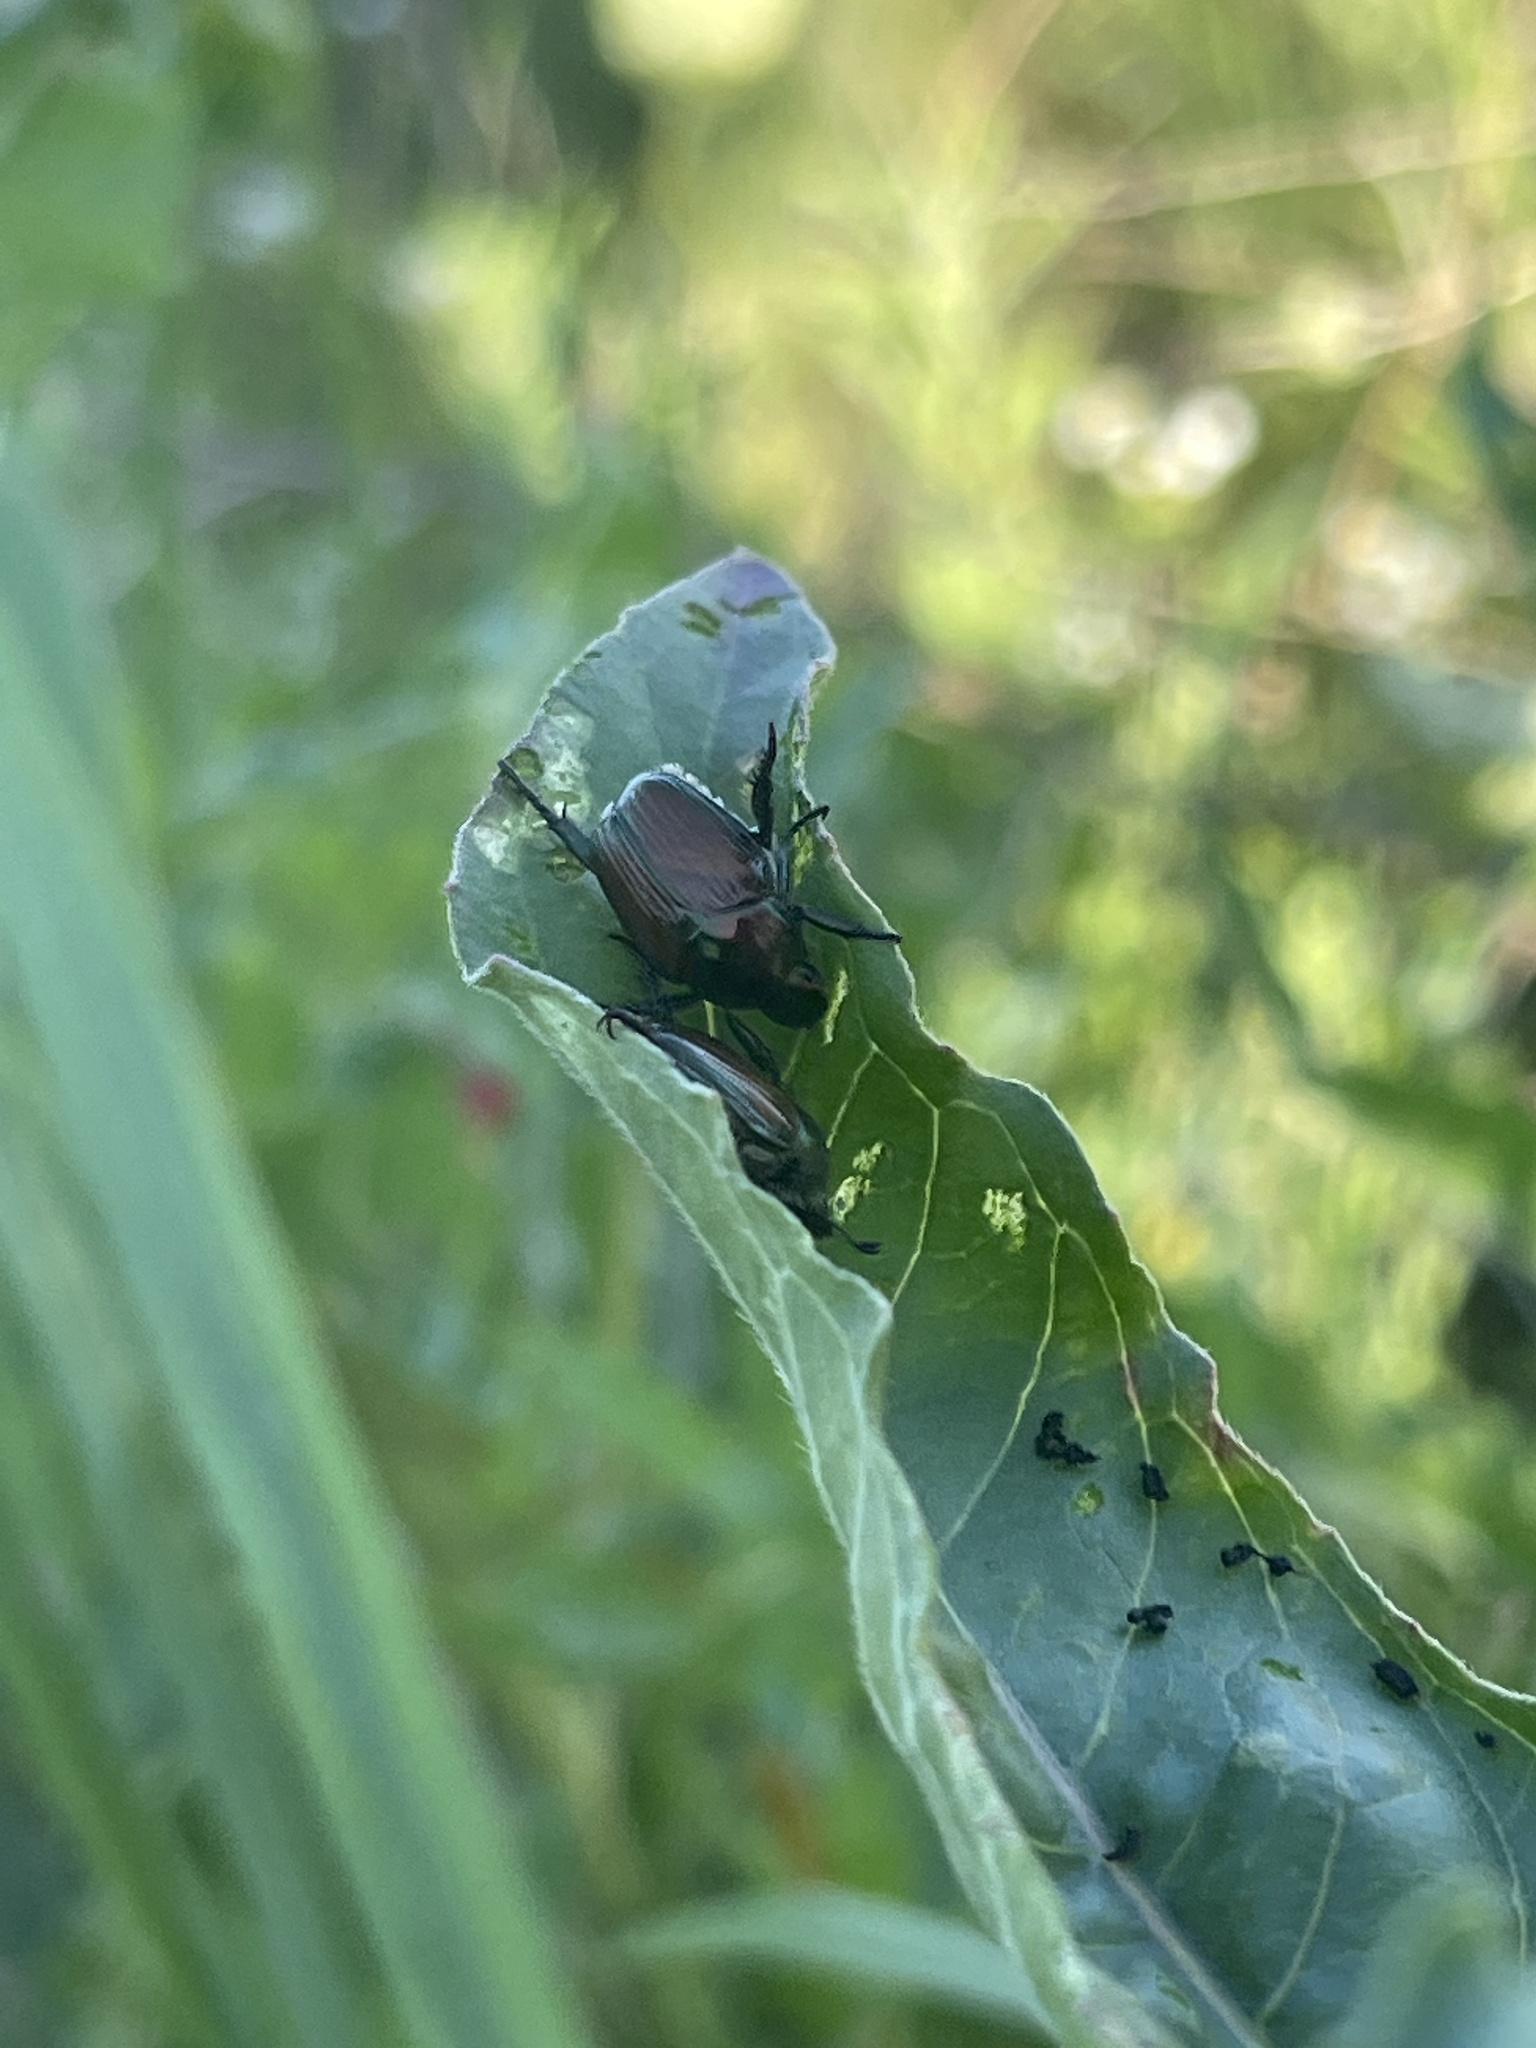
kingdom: Animalia
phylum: Arthropoda
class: Insecta
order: Coleoptera
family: Scarabaeidae
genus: Popillia
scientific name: Popillia japonica
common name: Japanese beetle
